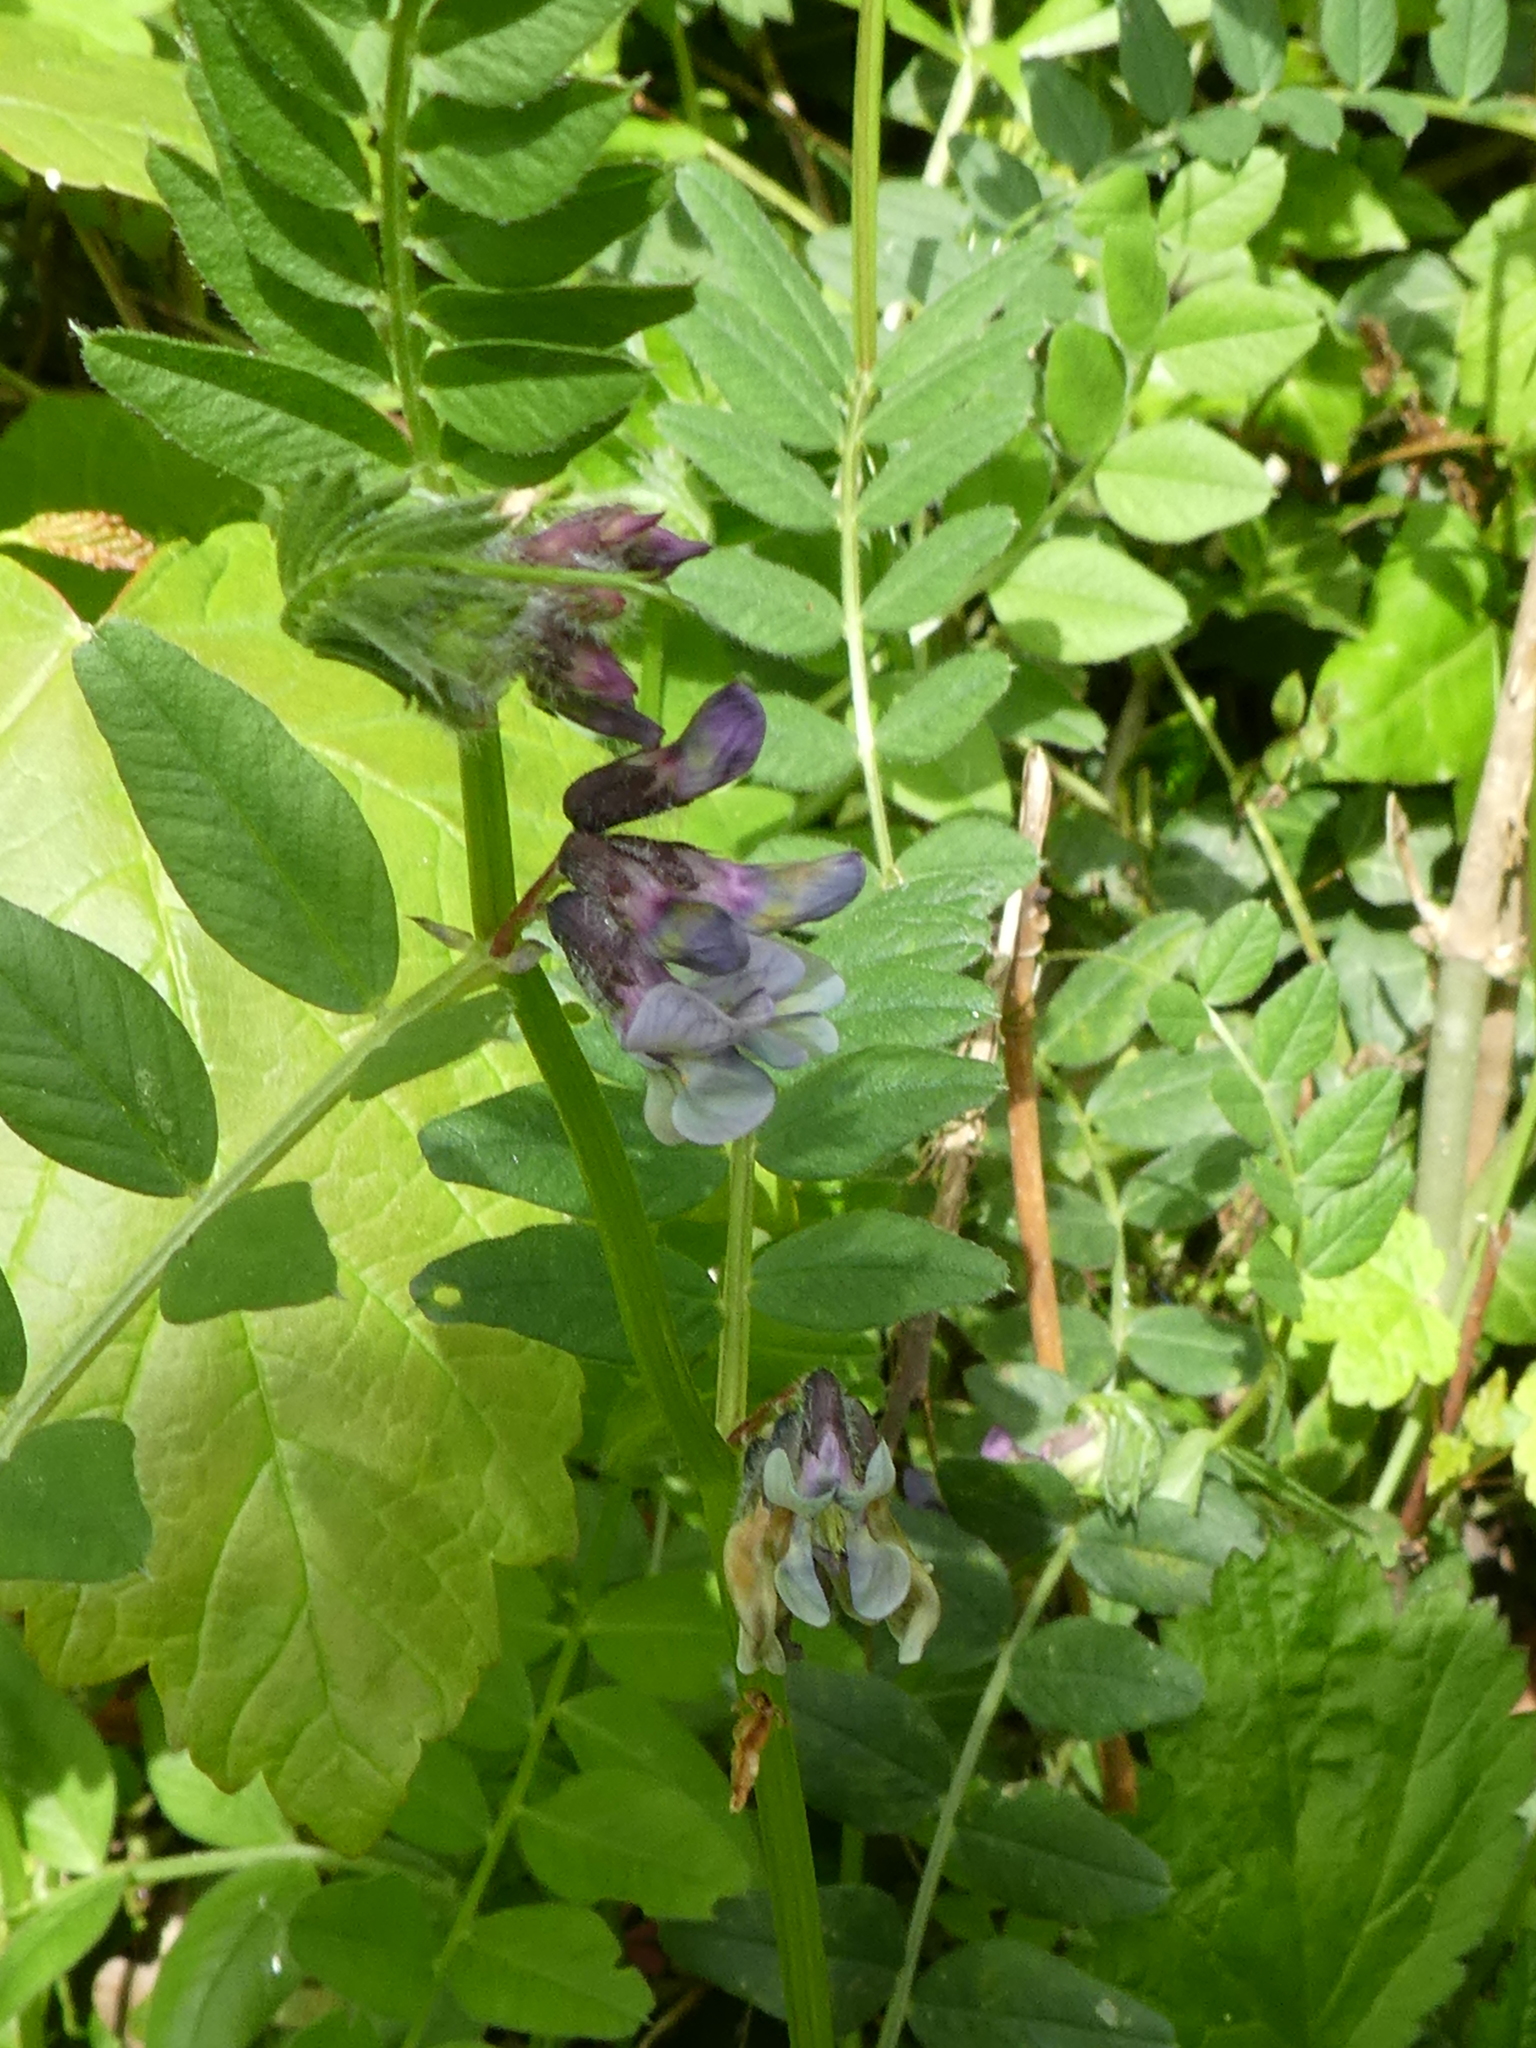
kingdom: Plantae
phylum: Tracheophyta
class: Magnoliopsida
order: Fabales
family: Fabaceae
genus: Vicia
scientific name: Vicia sepium
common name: Bush vetch
